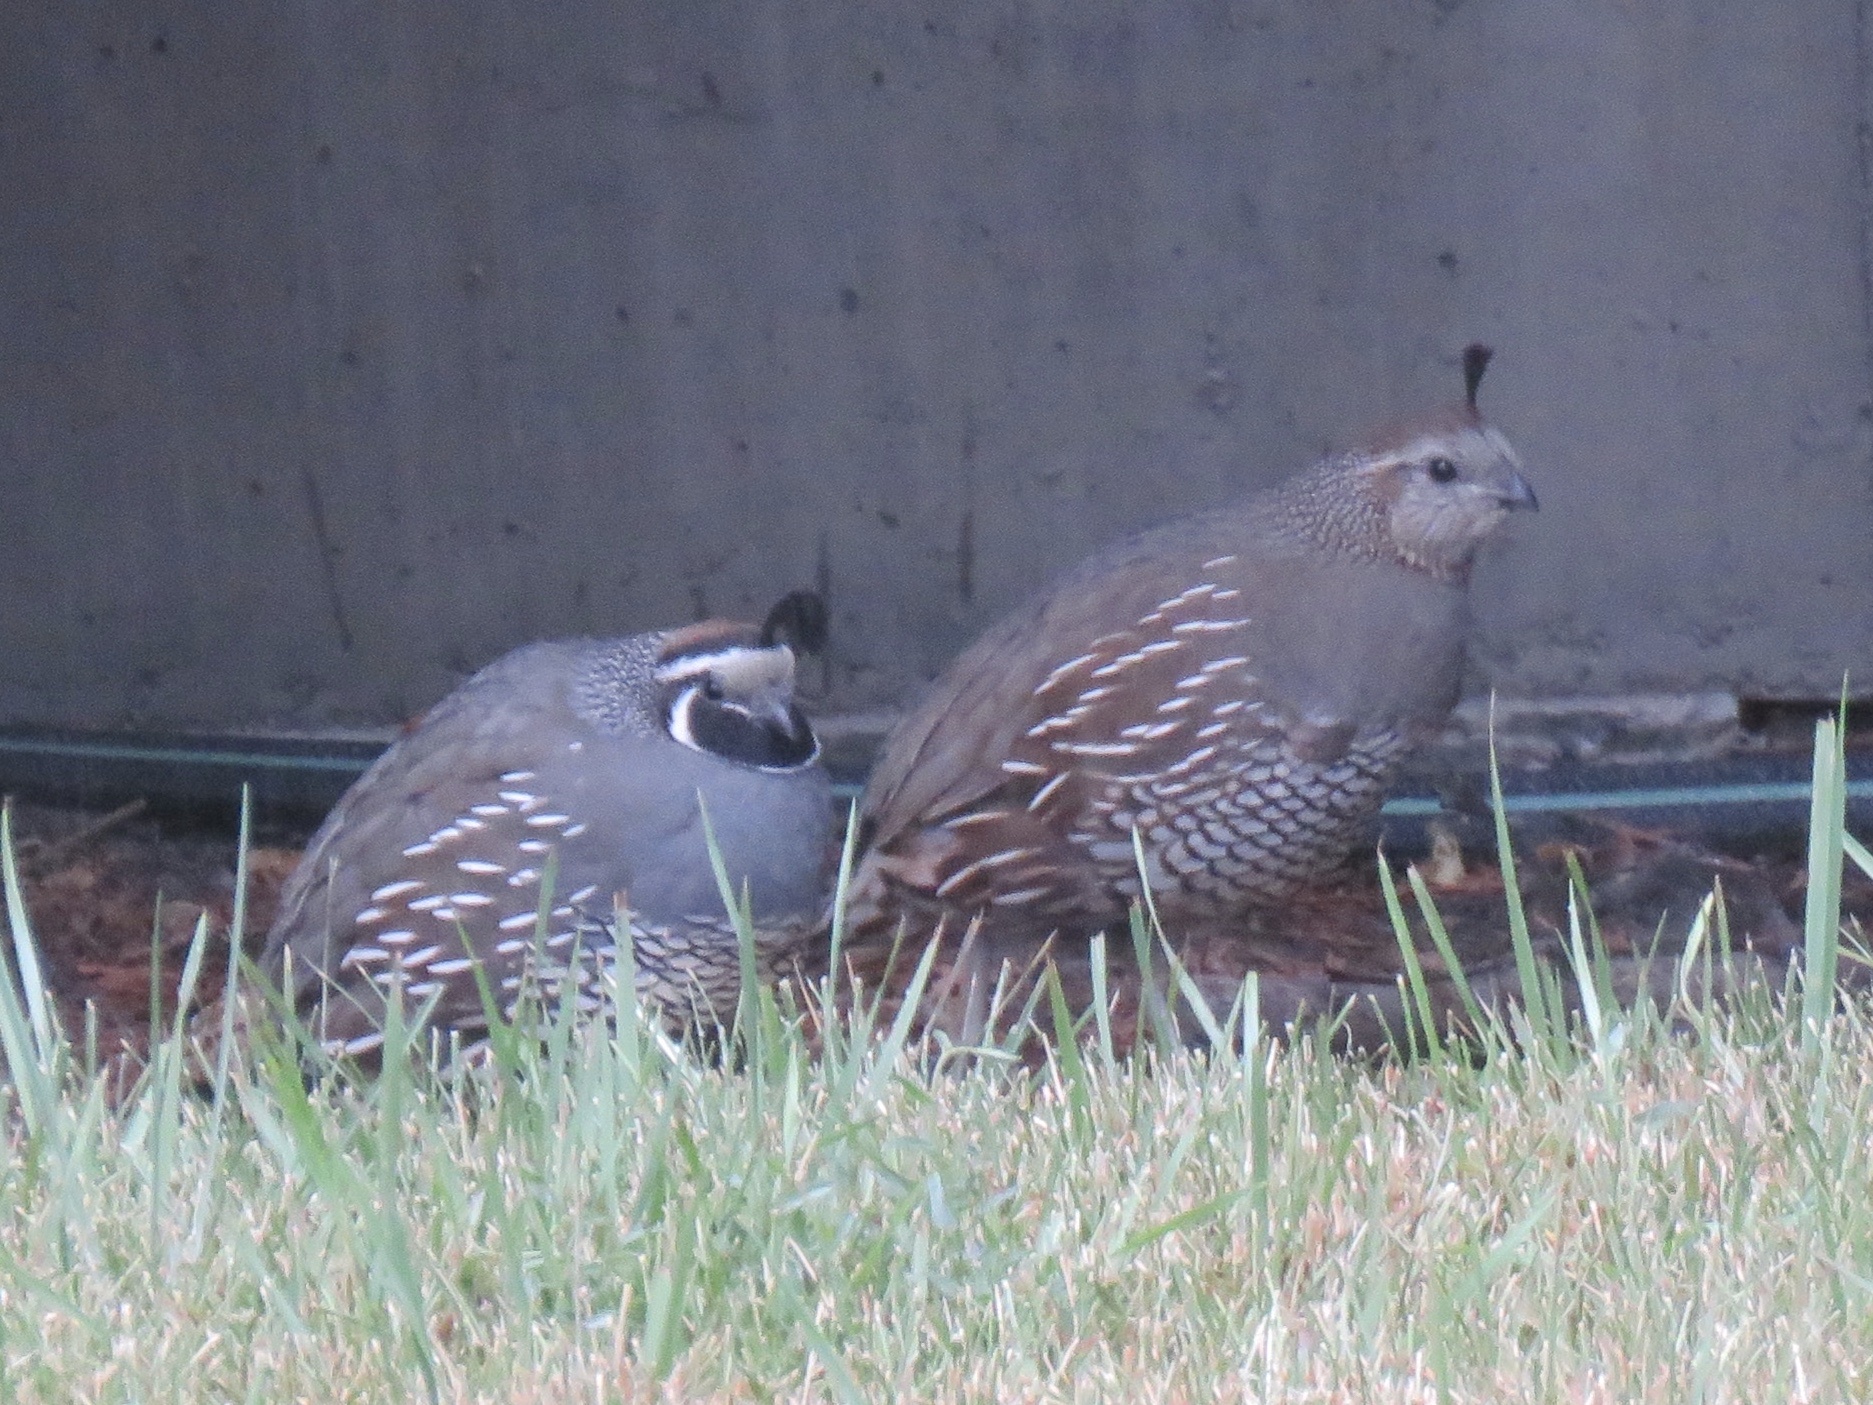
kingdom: Animalia
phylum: Chordata
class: Aves
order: Galliformes
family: Odontophoridae
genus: Callipepla
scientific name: Callipepla californica
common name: California quail
